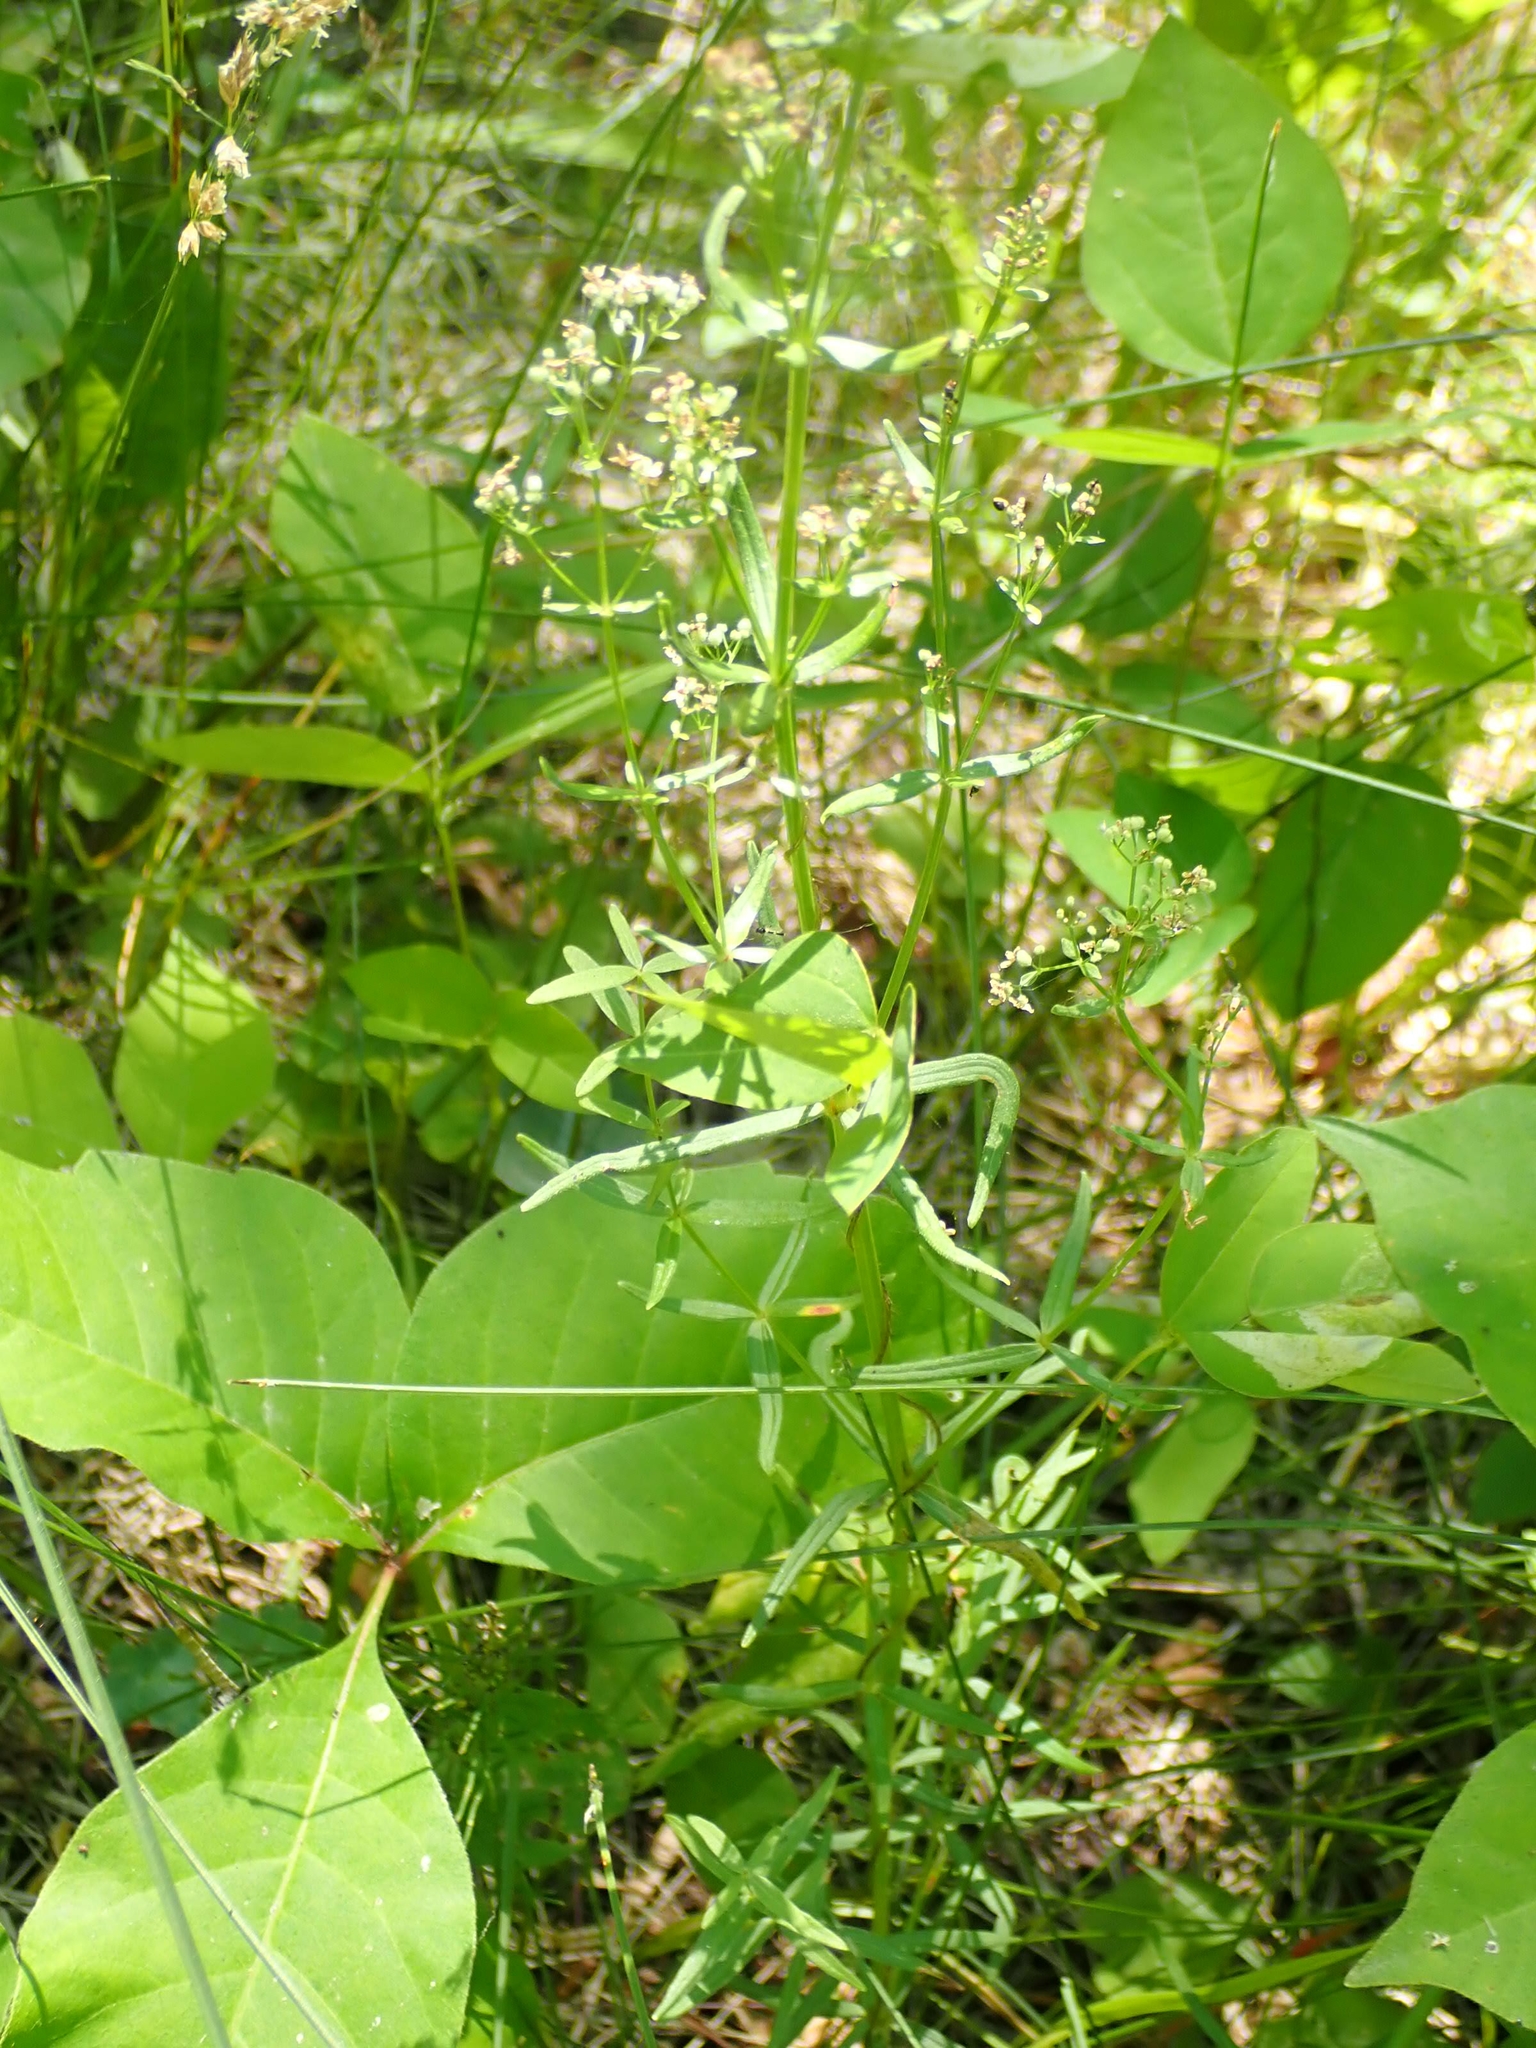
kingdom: Plantae
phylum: Tracheophyta
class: Magnoliopsida
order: Gentianales
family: Rubiaceae
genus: Galium
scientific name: Galium boreale
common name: Northern bedstraw
